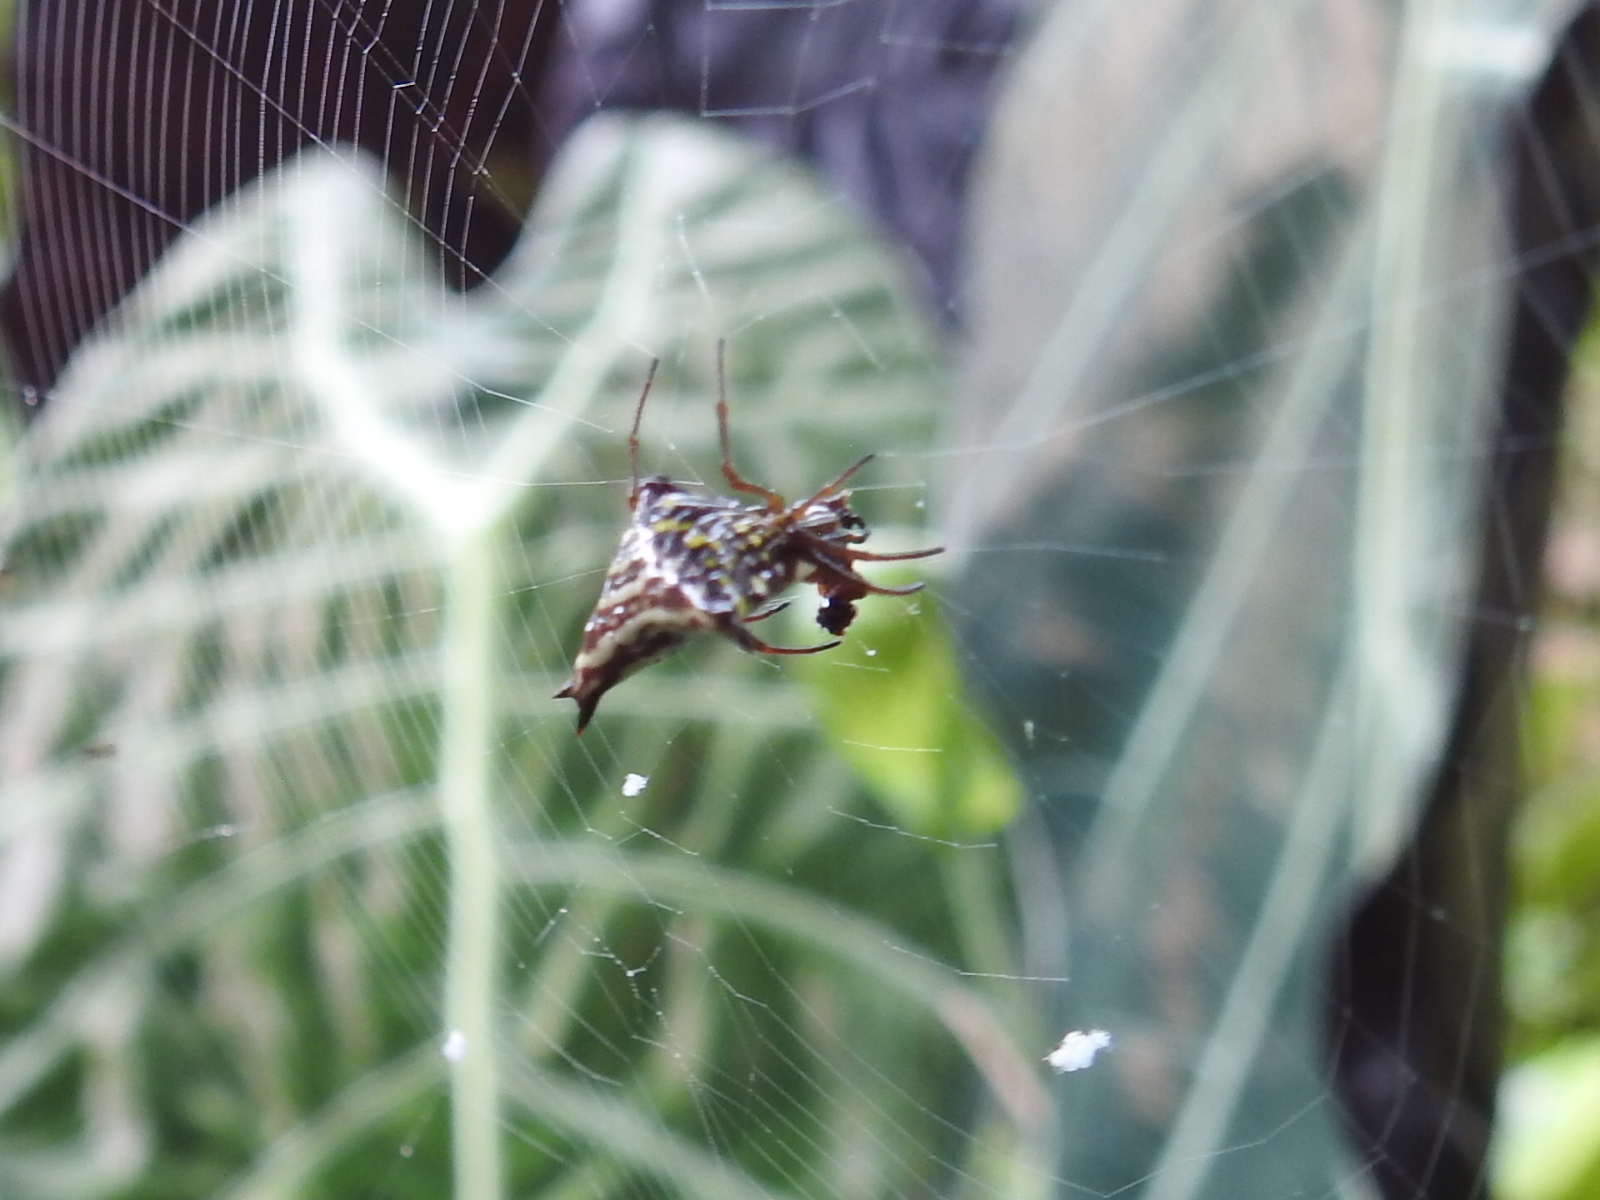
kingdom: Animalia
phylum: Arthropoda
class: Arachnida
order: Araneae
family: Araneidae
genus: Micrathena
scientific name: Micrathena lucasi
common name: Orb weavers
